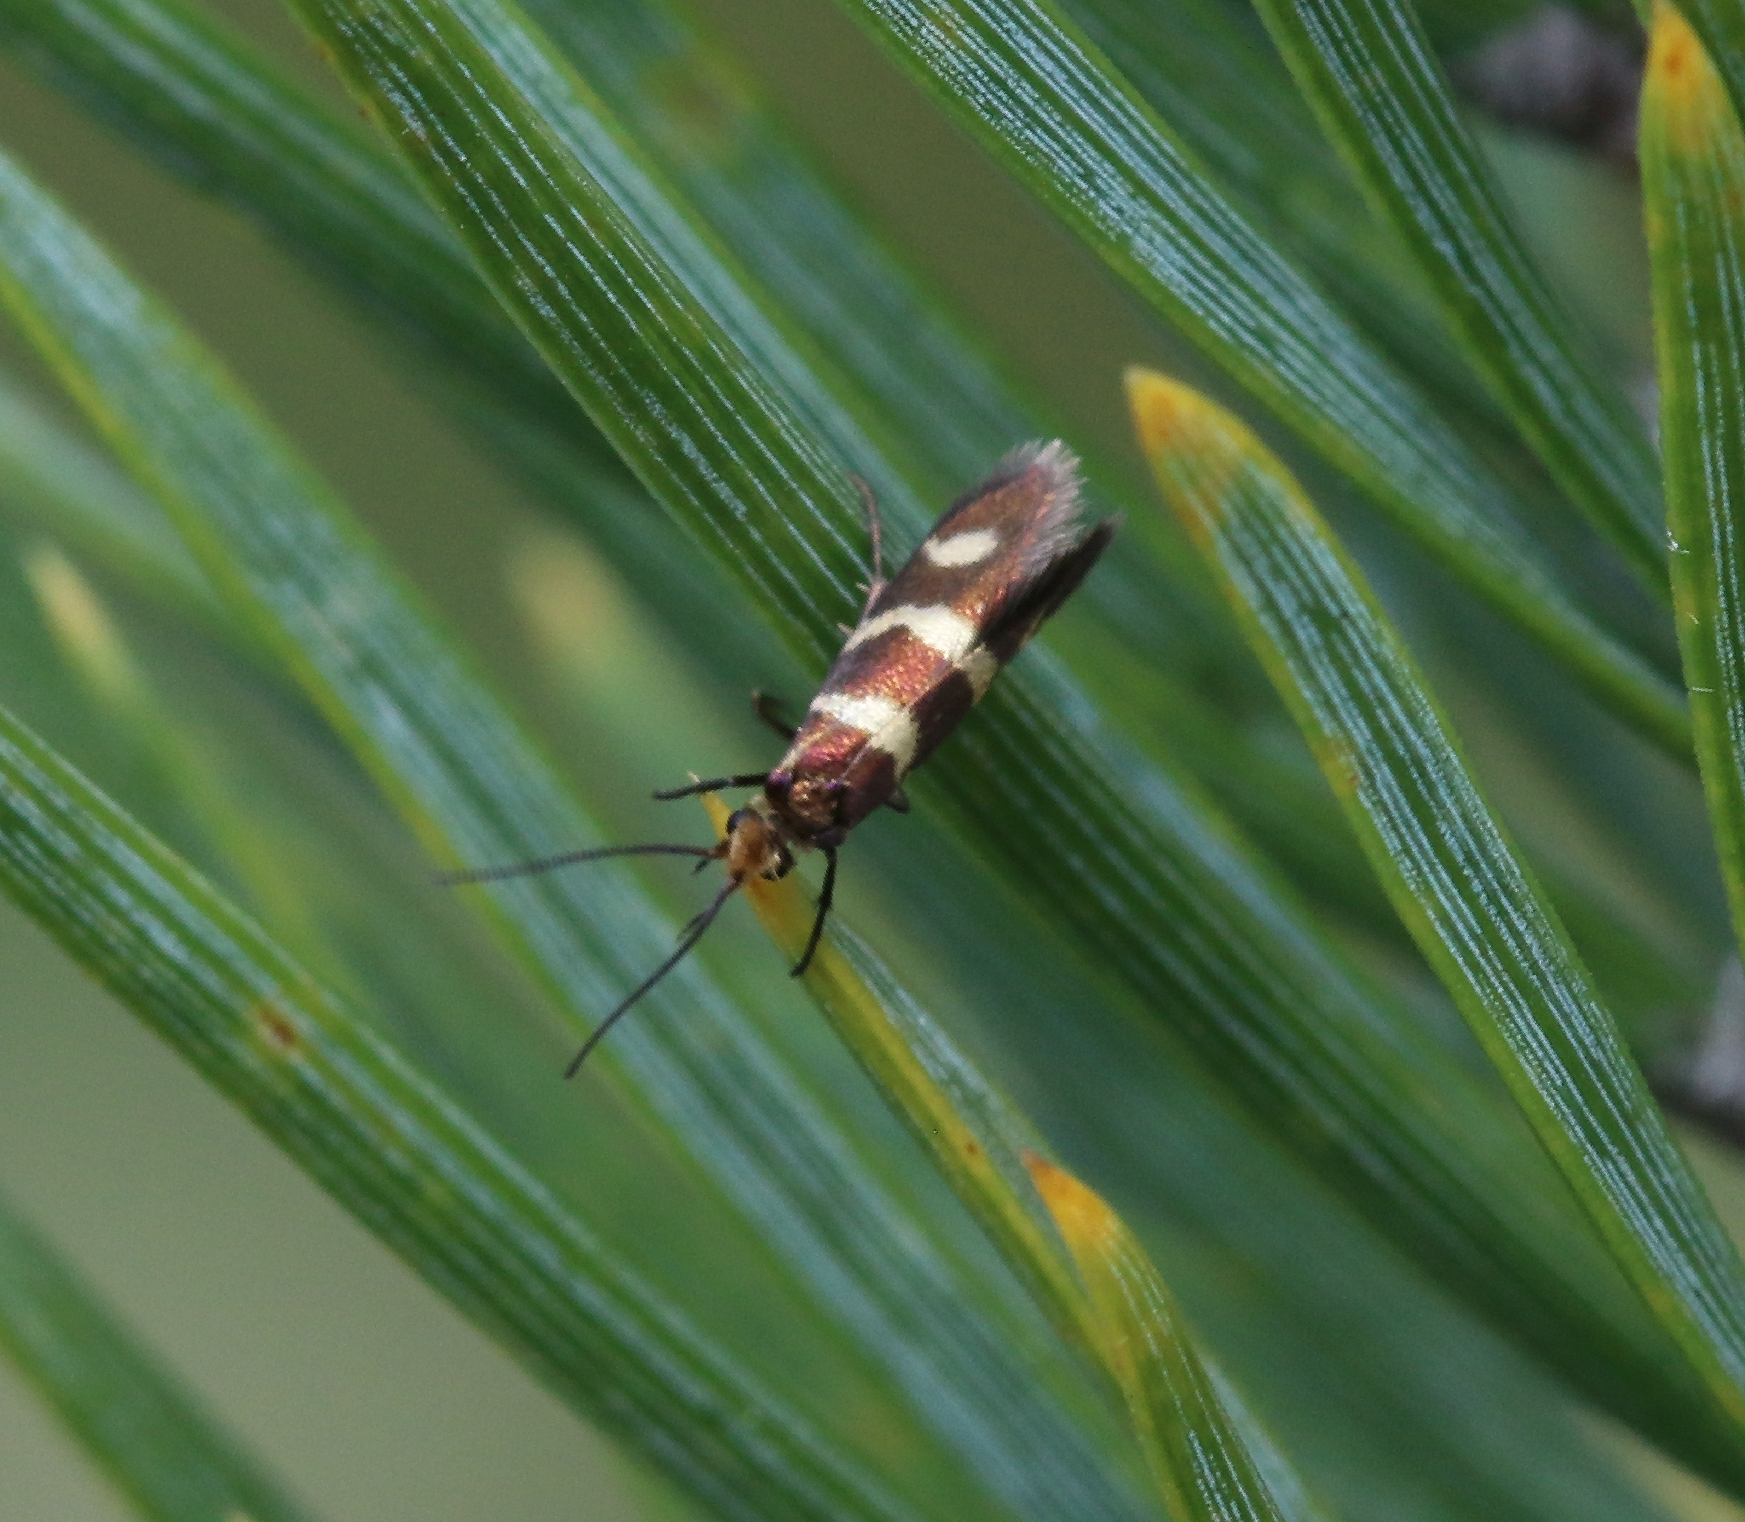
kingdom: Animalia
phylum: Arthropoda
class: Insecta
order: Lepidoptera
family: Micropterigidae
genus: Micropterix
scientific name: Micropterix aureatella
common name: Yellow-barred gold
